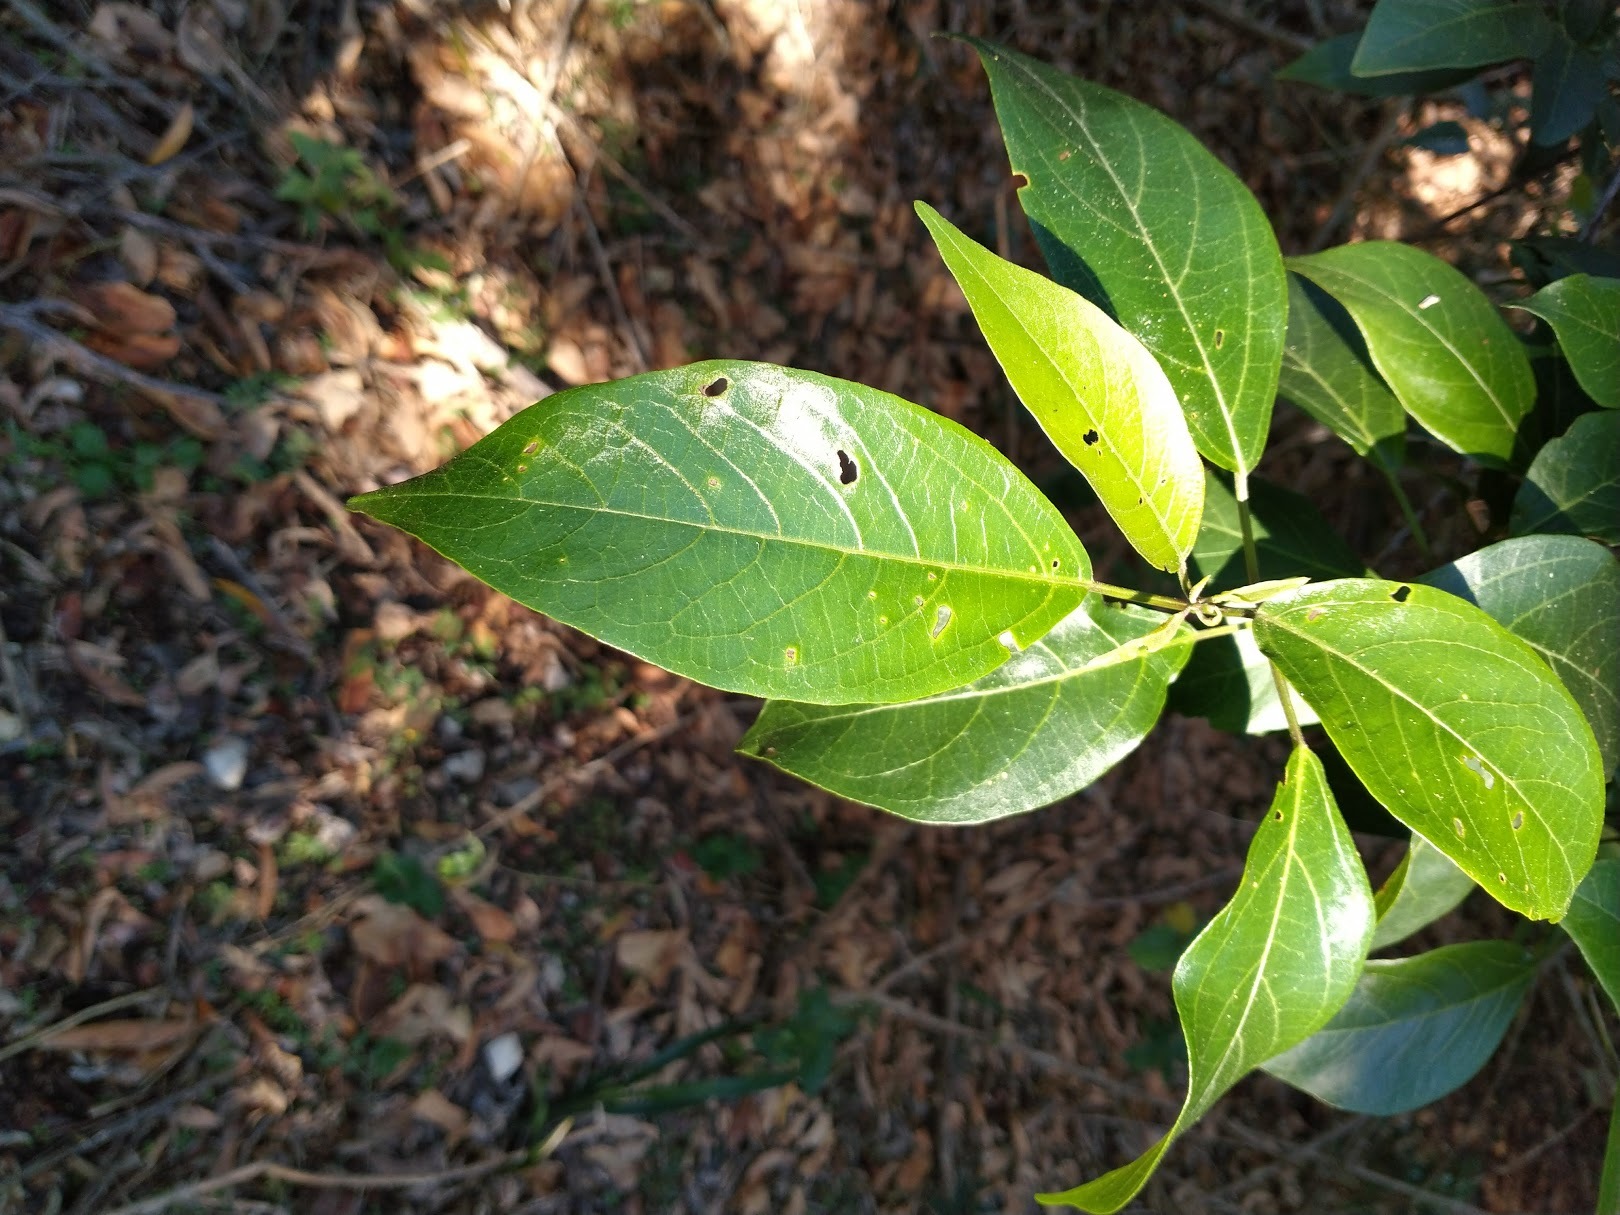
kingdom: Plantae
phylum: Tracheophyta
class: Magnoliopsida
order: Lamiales
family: Lamiaceae
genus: Clerodendrum
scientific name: Clerodendrum floribundum
